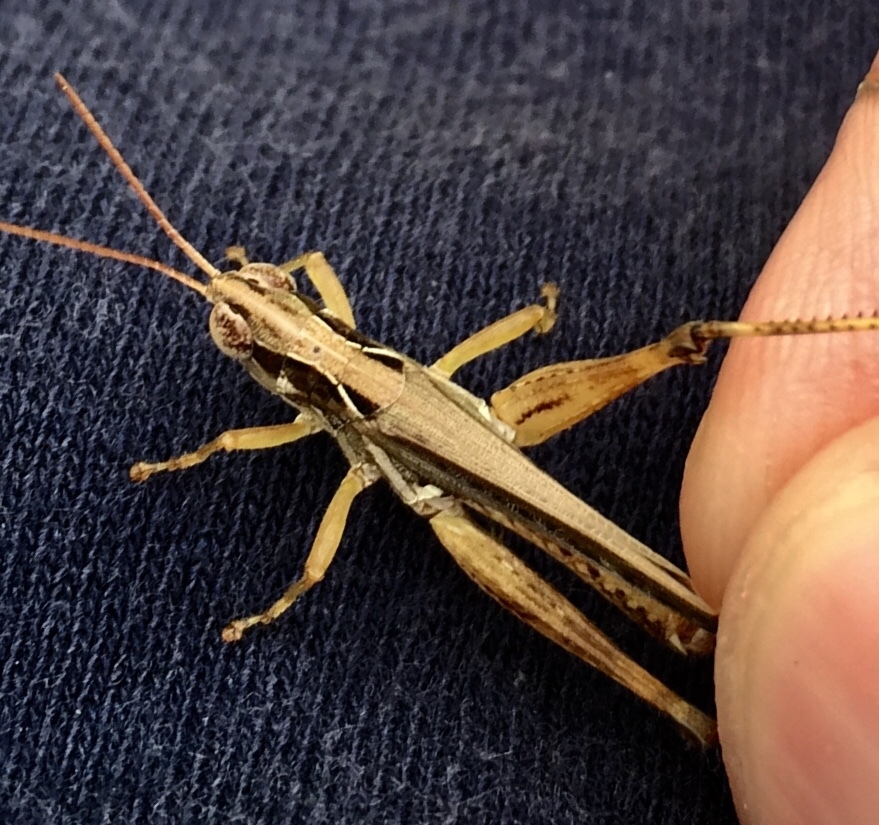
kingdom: Animalia
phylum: Arthropoda
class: Insecta
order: Orthoptera
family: Acrididae
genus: Orphulella
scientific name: Orphulella pelidna
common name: Spotted-wing grasshopper
